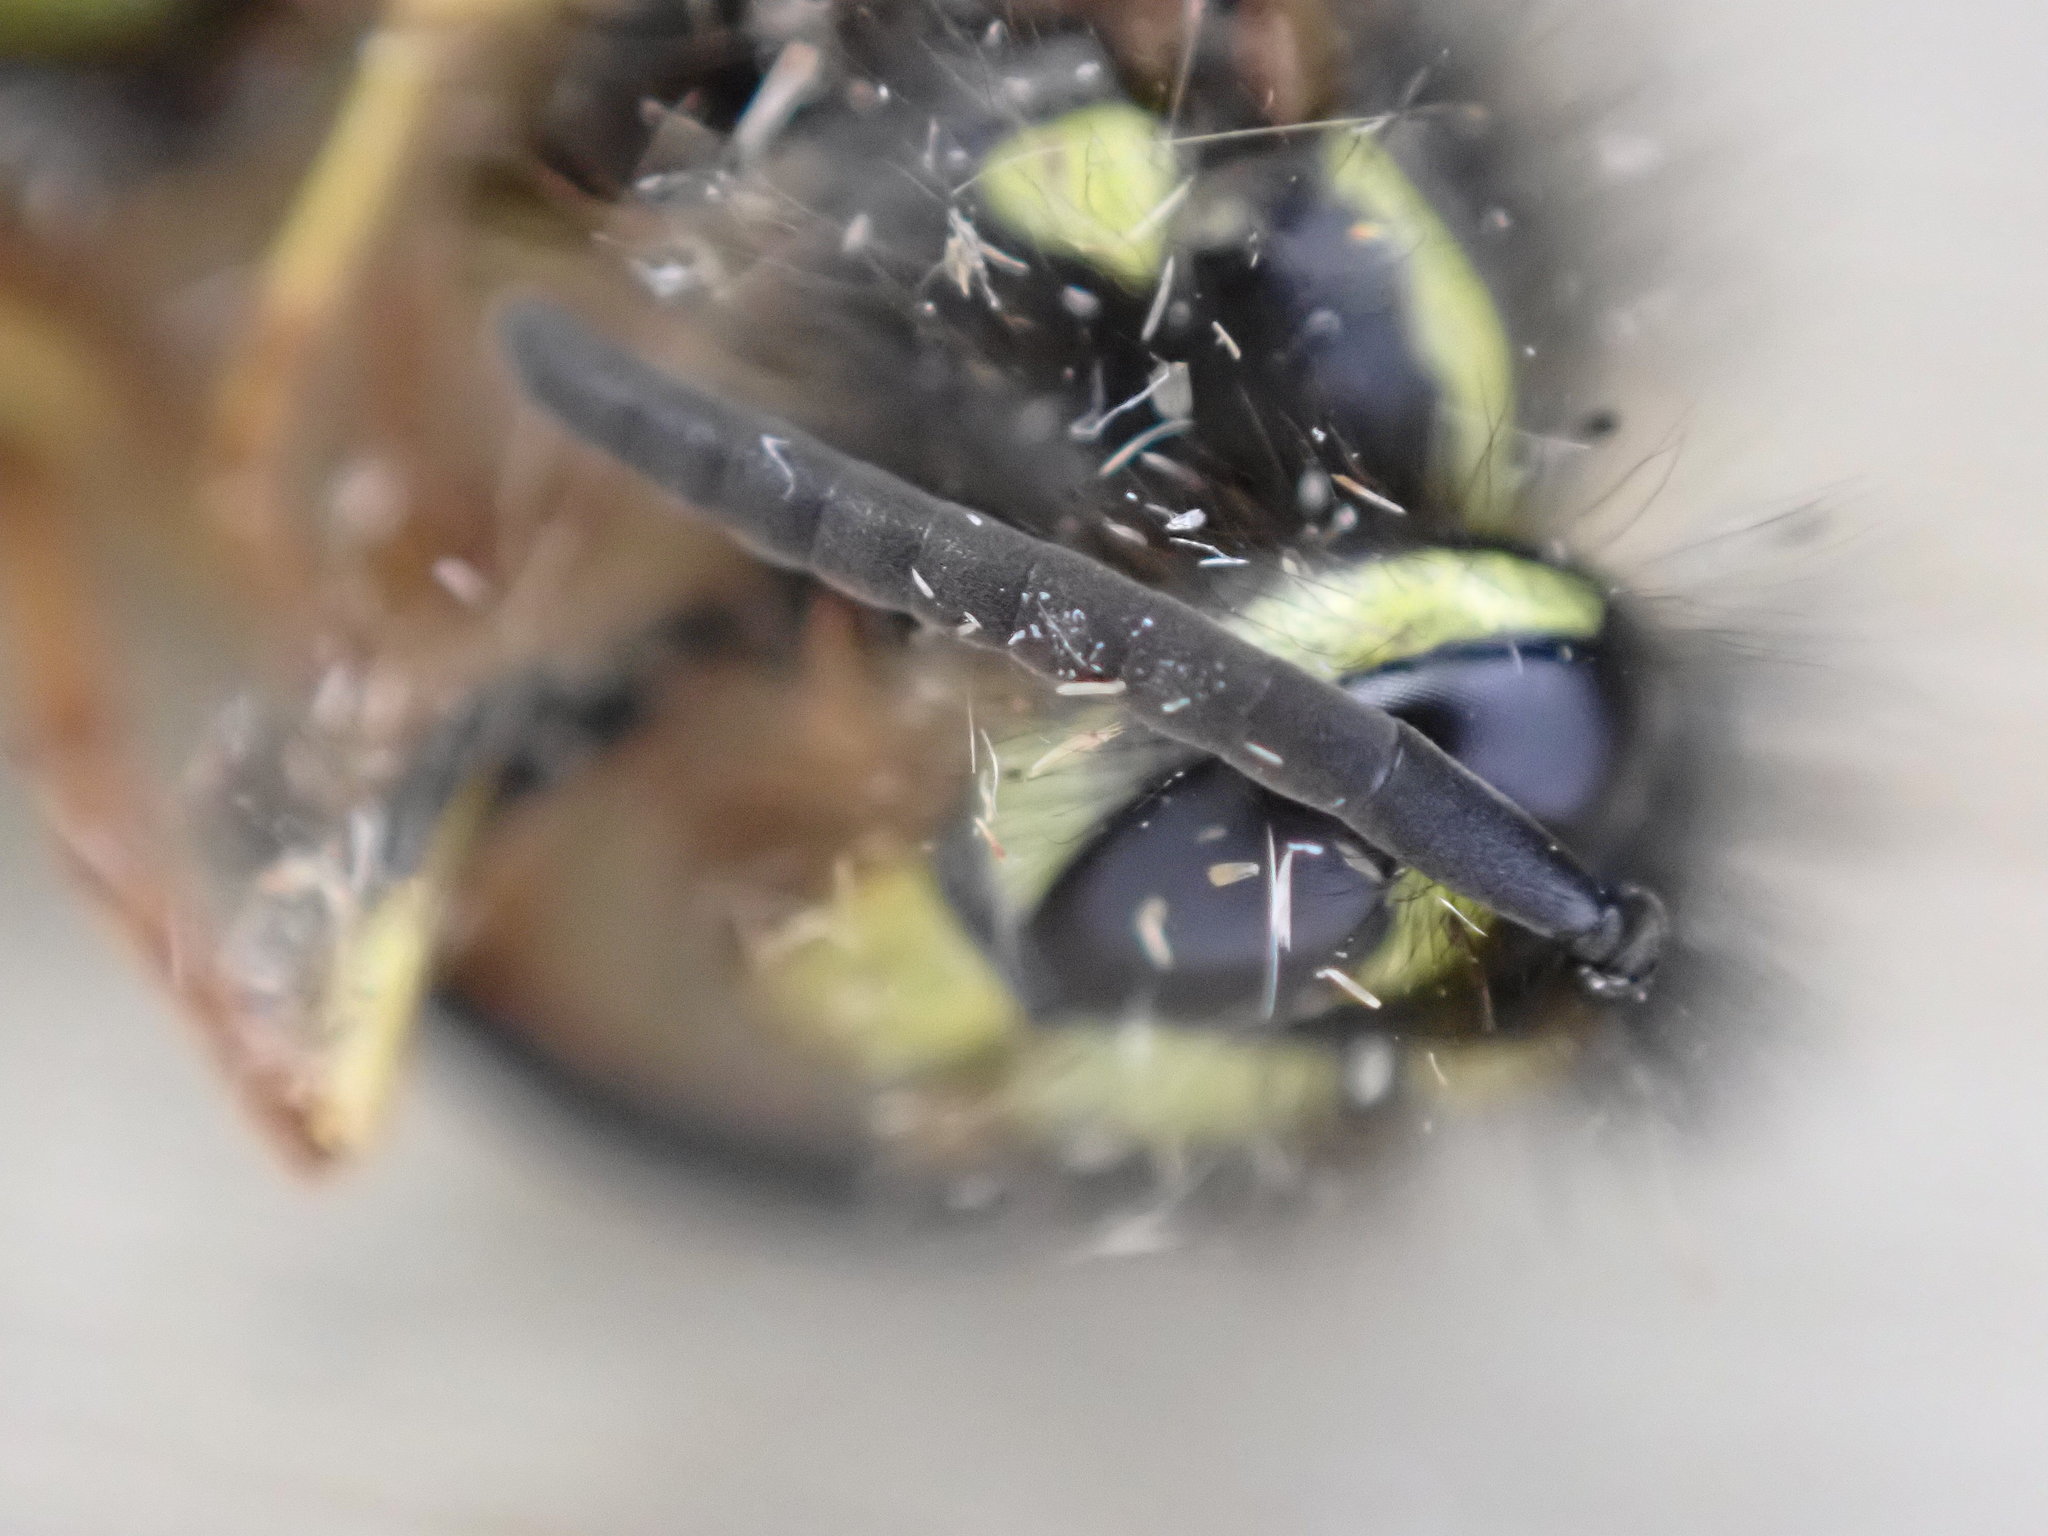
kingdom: Animalia
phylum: Arthropoda
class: Insecta
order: Hymenoptera
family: Vespidae
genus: Vespula
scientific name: Vespula vulgaris
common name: Common wasp
